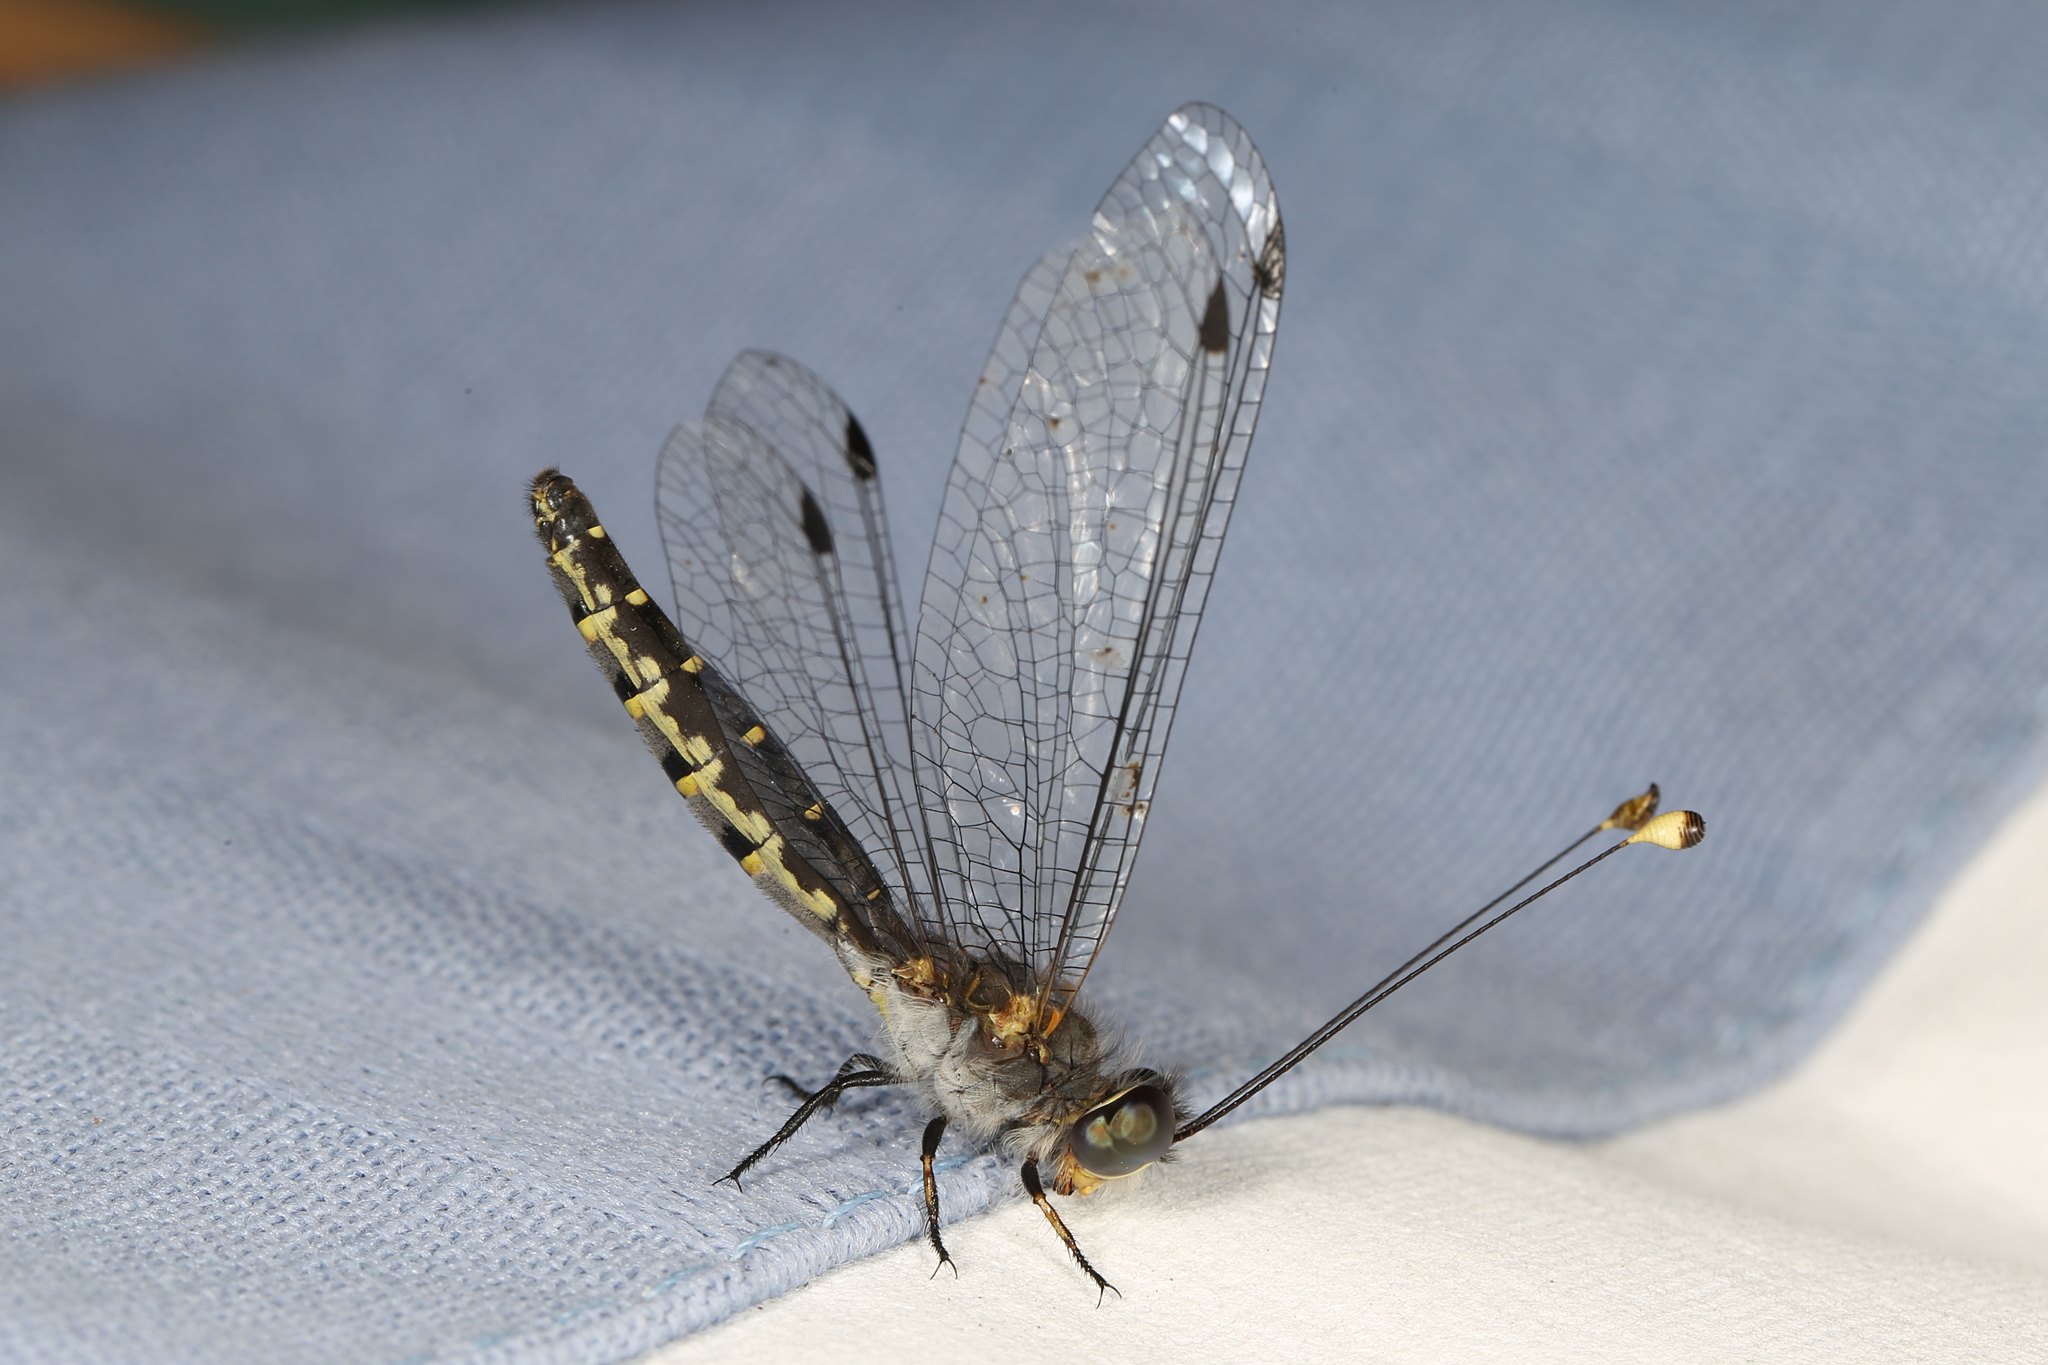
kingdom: Animalia
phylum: Arthropoda
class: Insecta
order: Neuroptera
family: Ascalaphidae
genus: Suphalomitus
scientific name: Suphalomitus difformis
